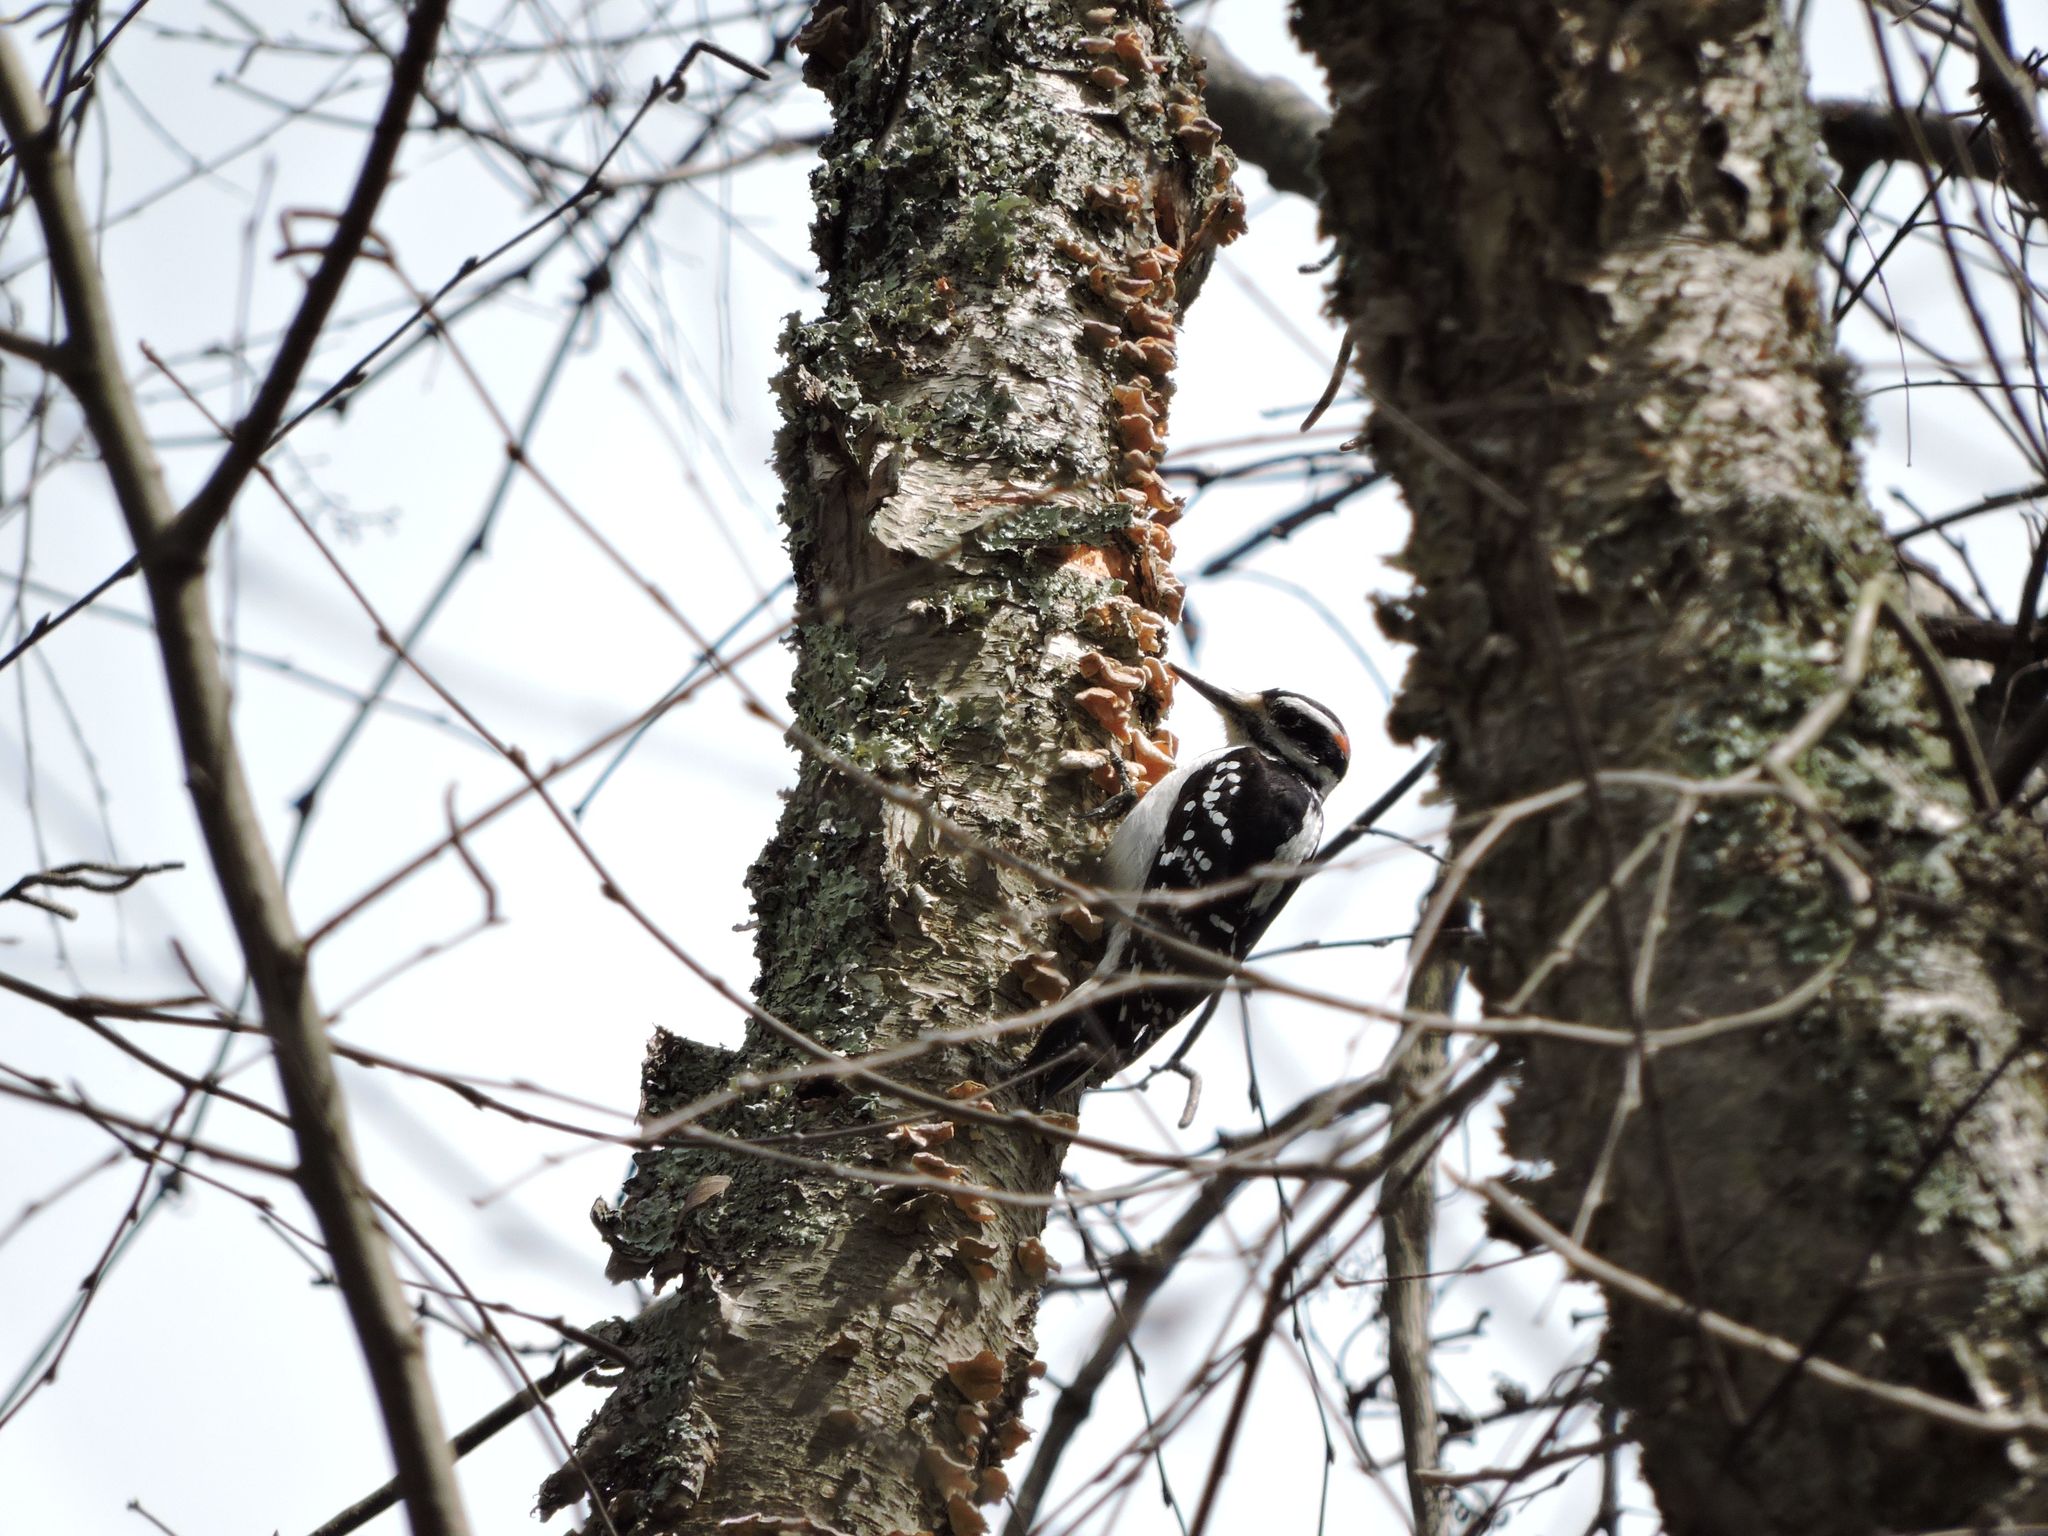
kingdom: Animalia
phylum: Chordata
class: Aves
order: Piciformes
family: Picidae
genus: Leuconotopicus
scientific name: Leuconotopicus villosus
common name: Hairy woodpecker
